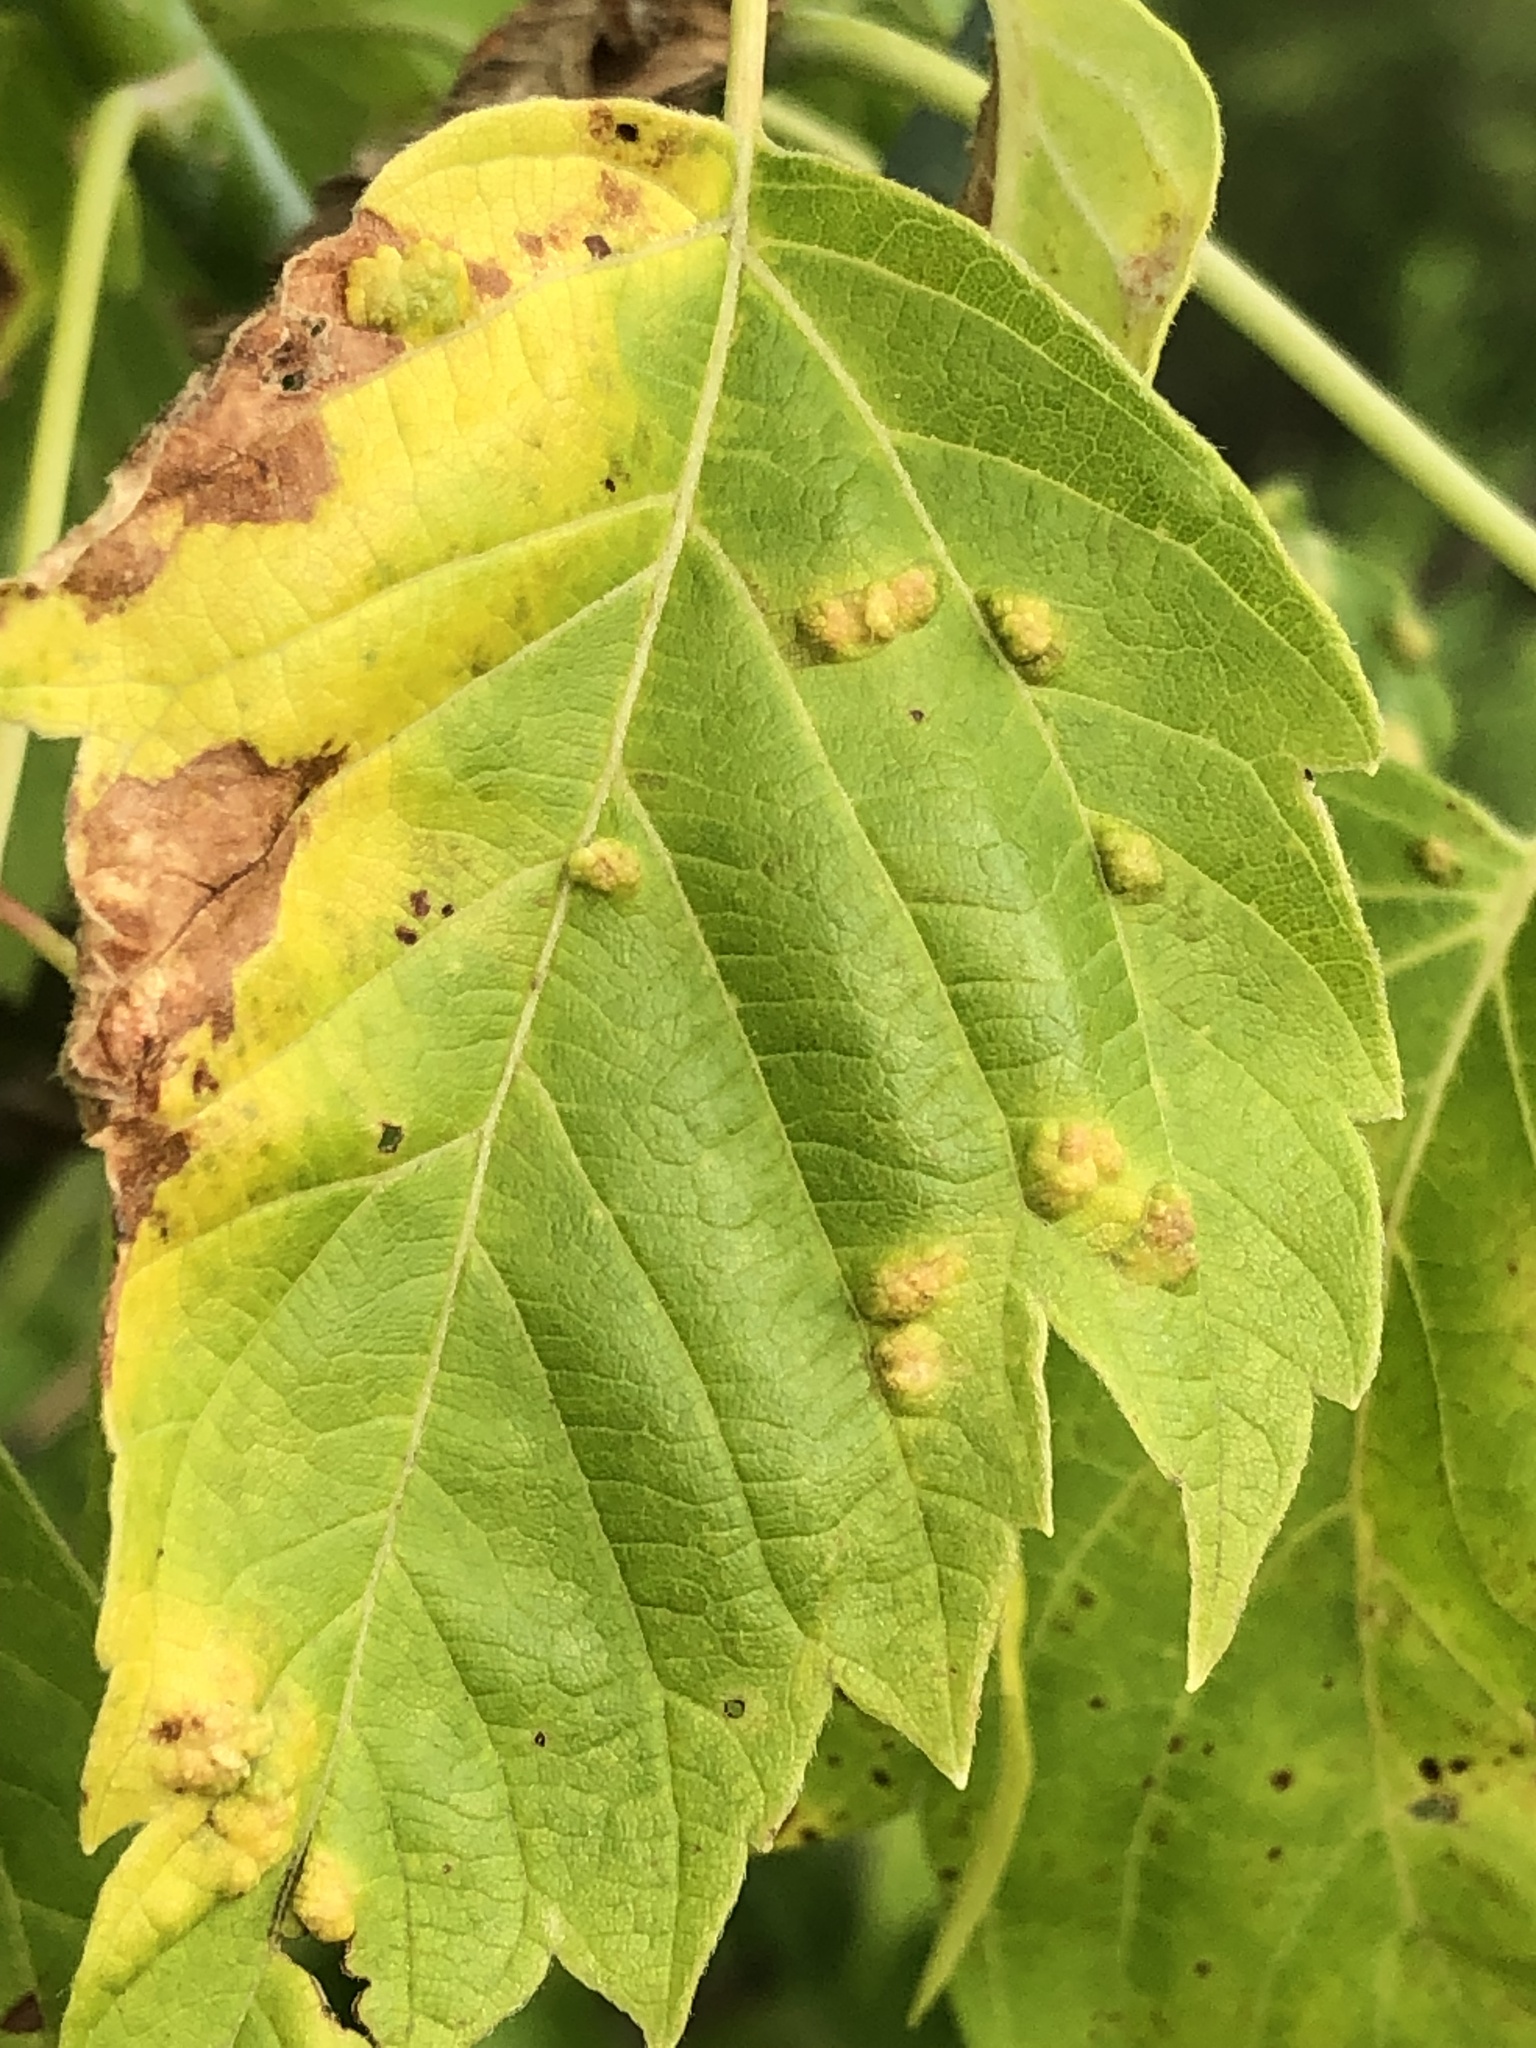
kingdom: Animalia
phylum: Arthropoda
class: Arachnida
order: Trombidiformes
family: Eriophyidae
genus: Aceria
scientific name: Aceria
